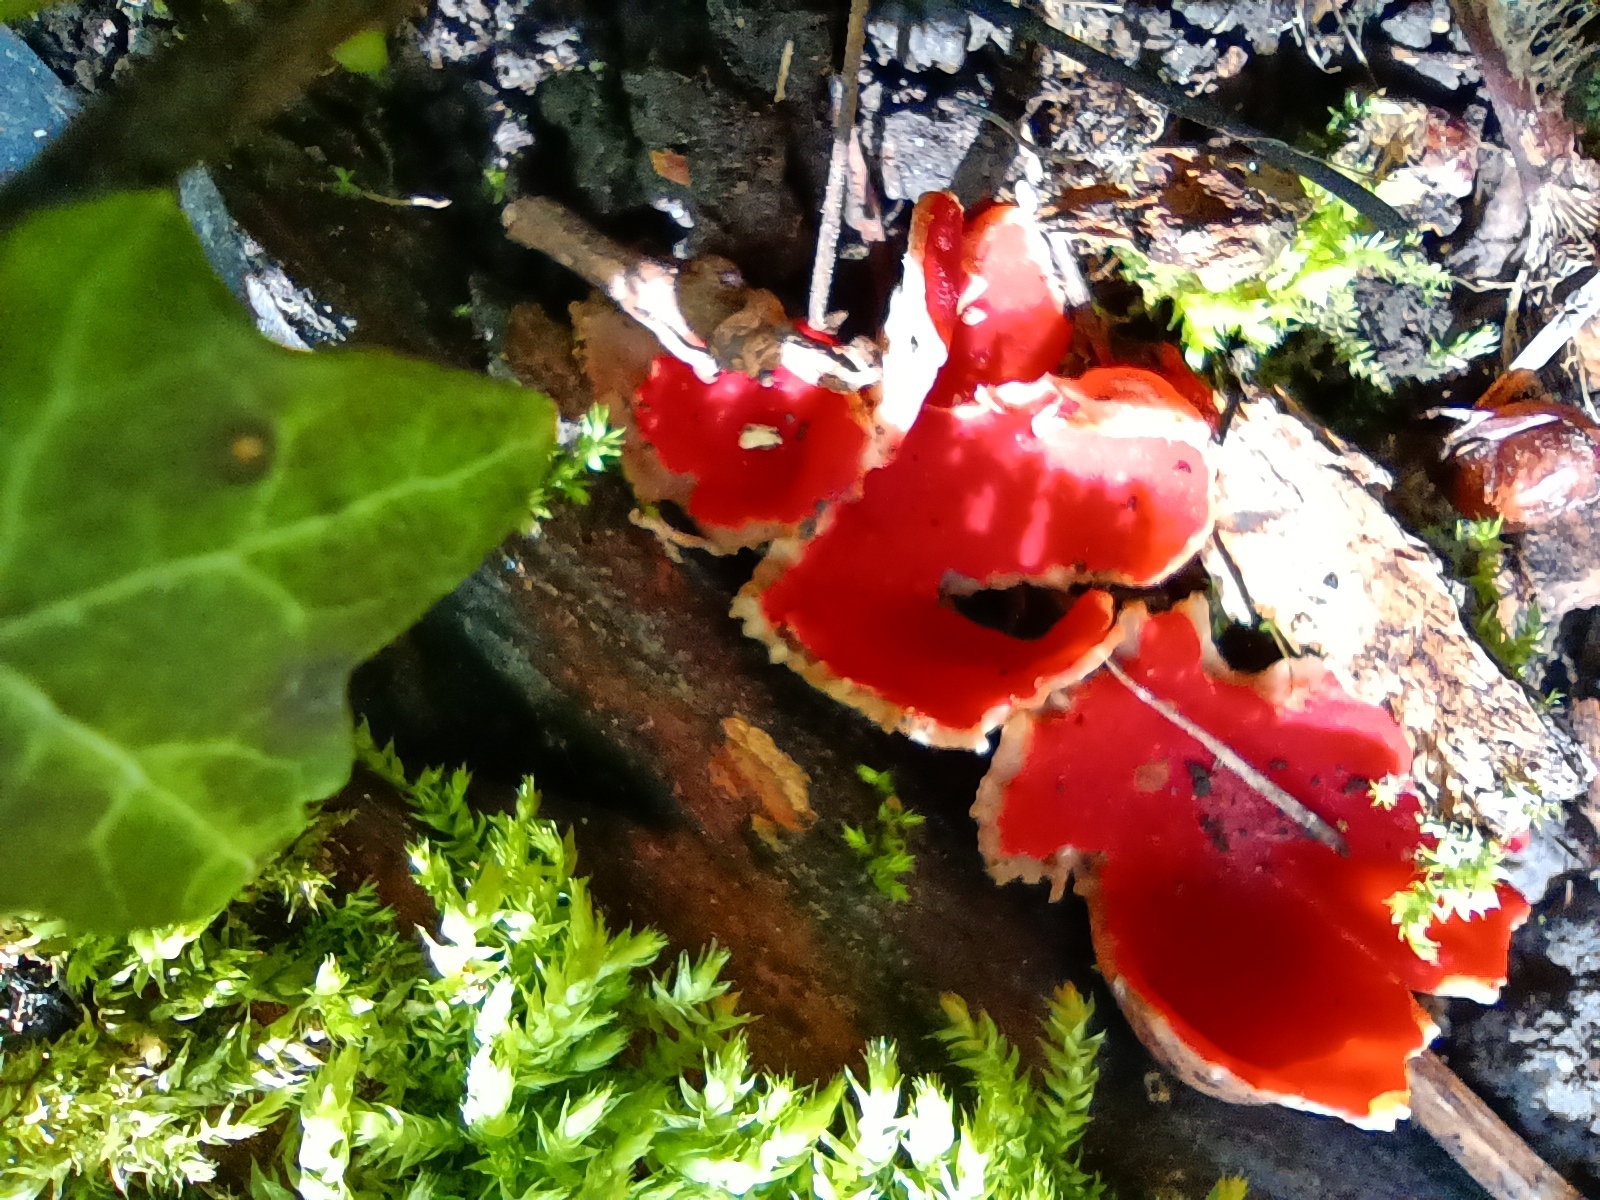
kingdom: Fungi
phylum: Ascomycota
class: Pezizomycetes
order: Pezizales
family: Sarcoscyphaceae
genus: Sarcoscypha
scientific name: Sarcoscypha
